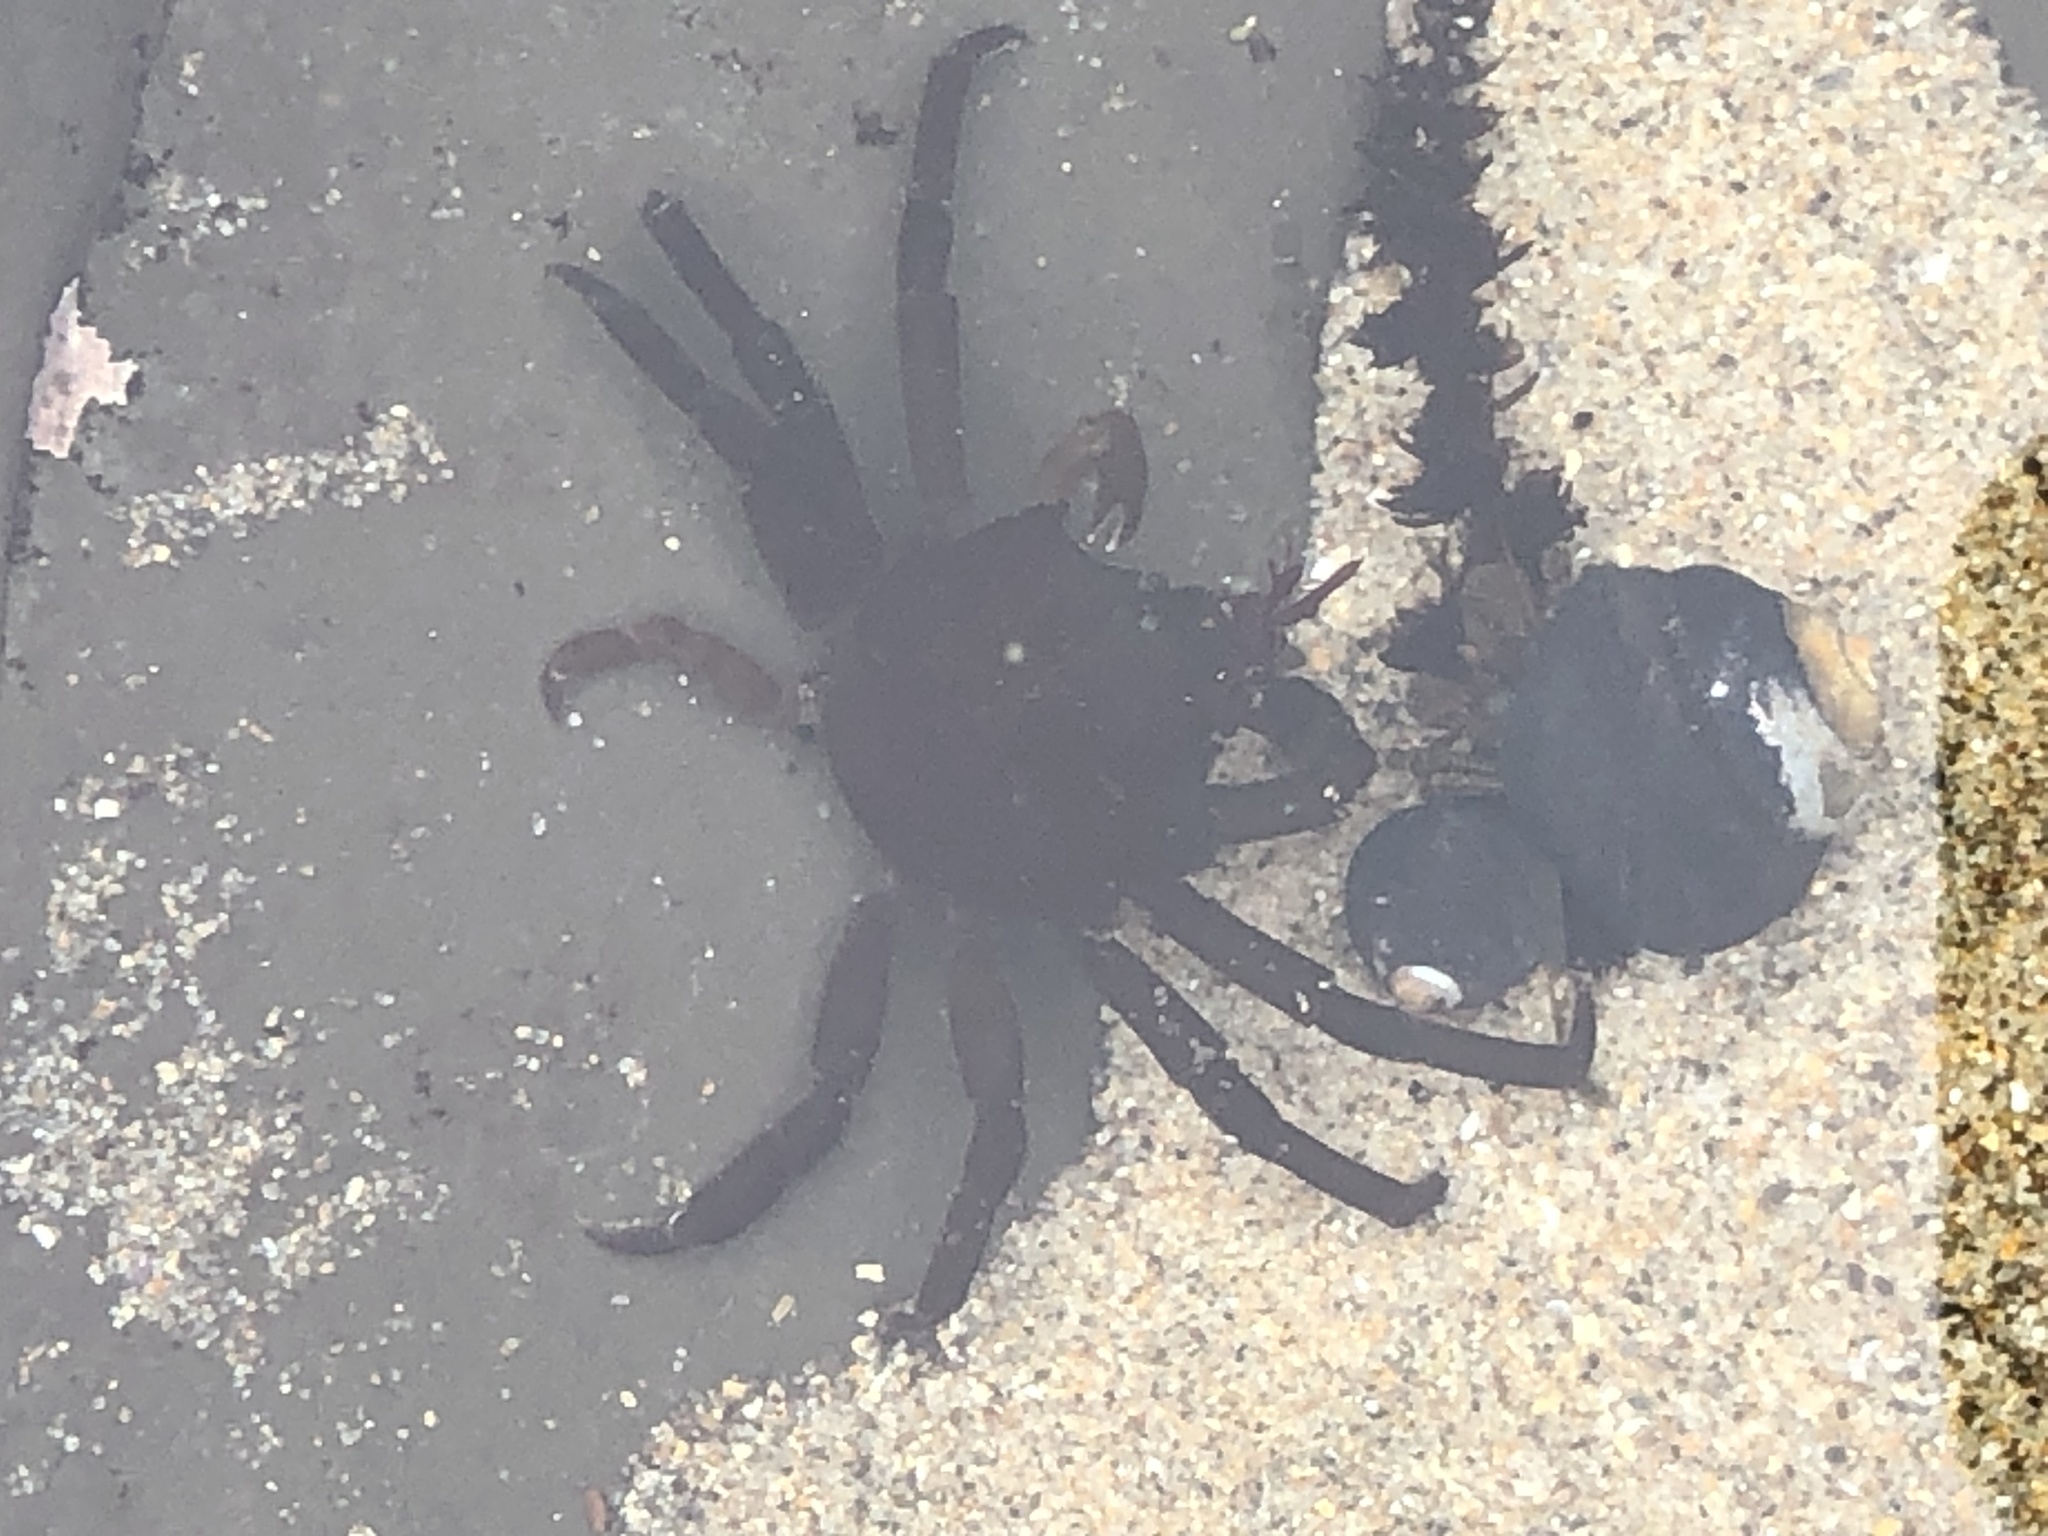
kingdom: Animalia
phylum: Arthropoda
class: Malacostraca
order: Decapoda
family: Epialtidae
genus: Pugettia
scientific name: Pugettia producta
